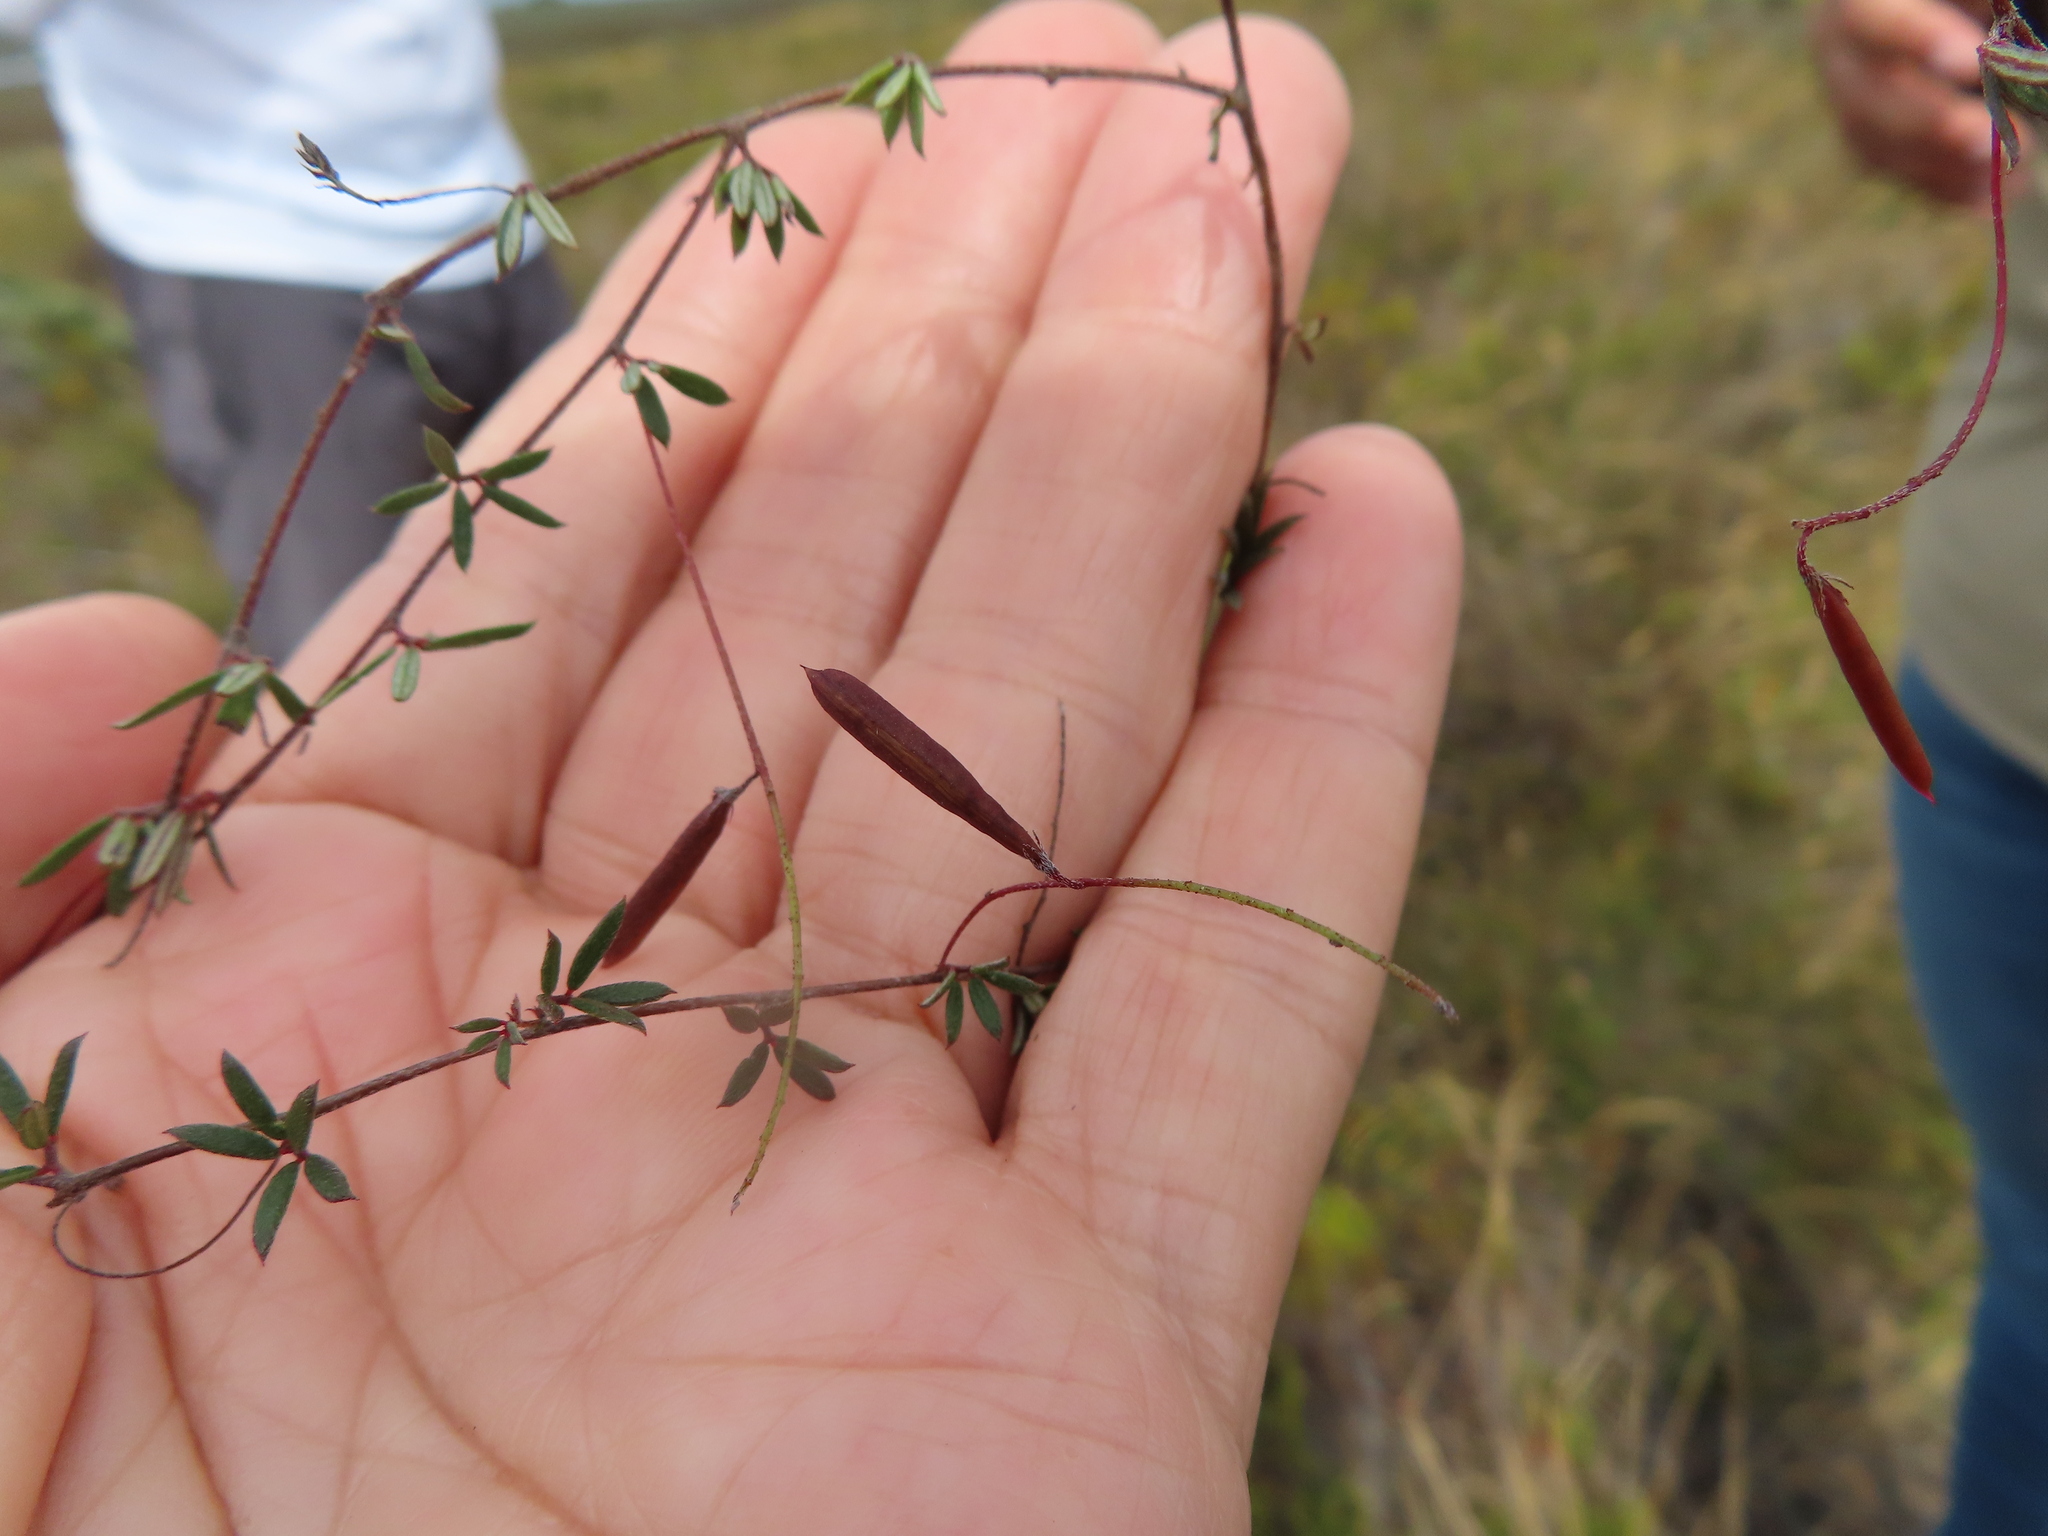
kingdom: Plantae
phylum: Tracheophyta
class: Magnoliopsida
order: Fabales
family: Fabaceae
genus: Indigofera
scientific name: Indigofera angustifolia
